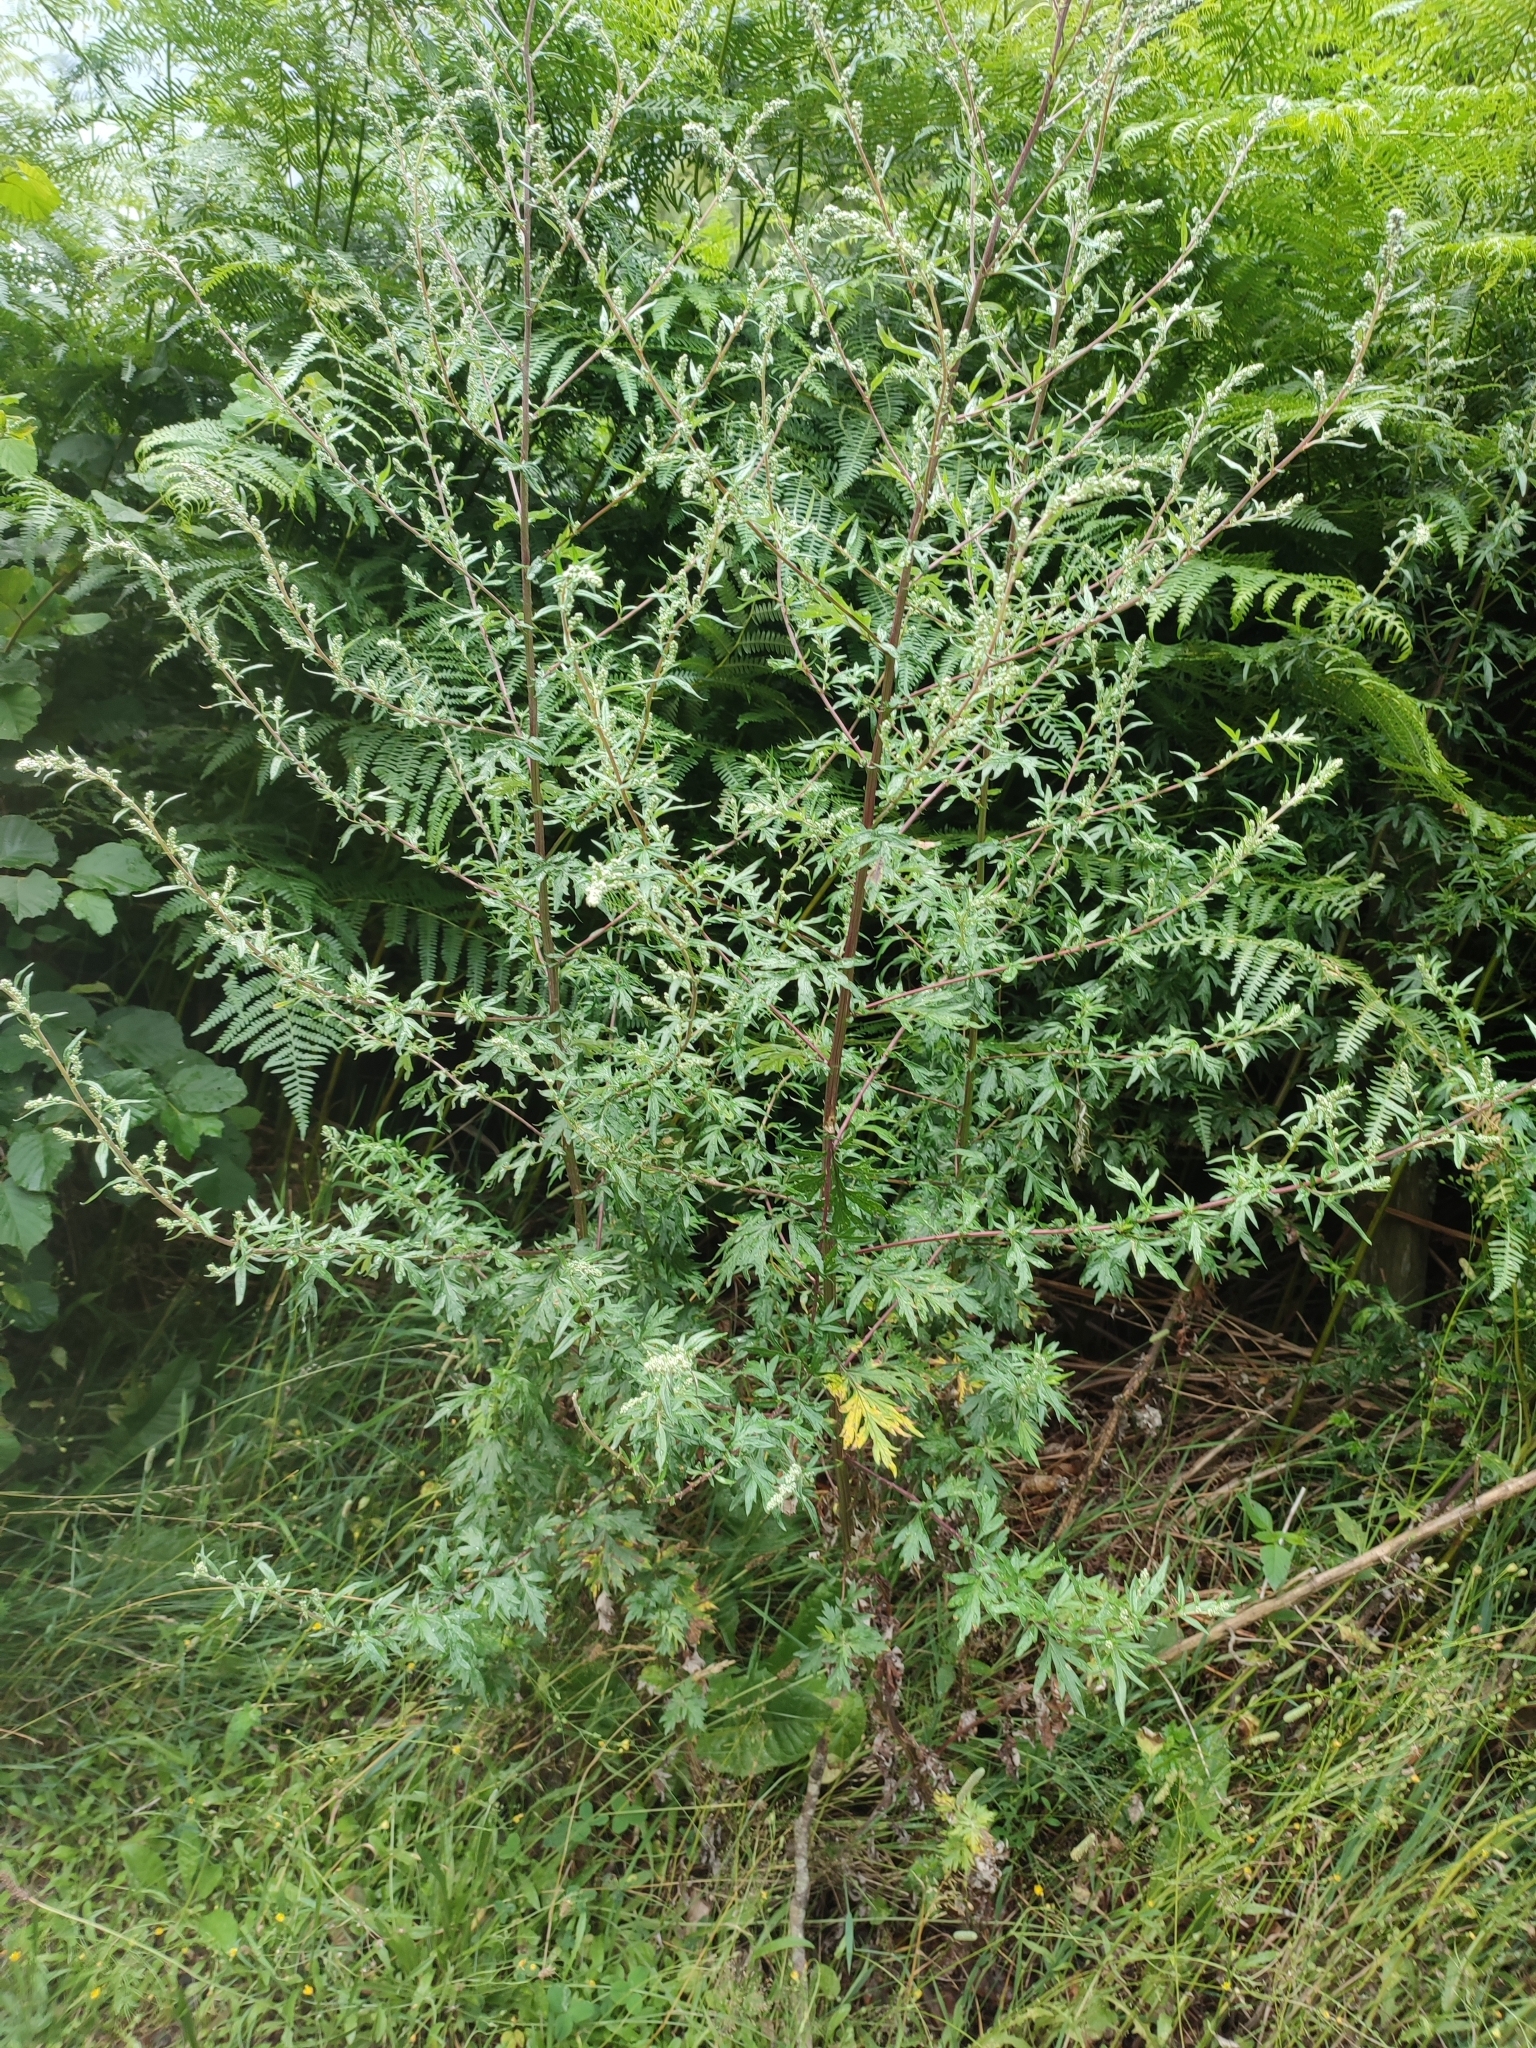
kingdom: Plantae
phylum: Tracheophyta
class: Magnoliopsida
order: Asterales
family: Asteraceae
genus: Artemisia
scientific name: Artemisia vulgaris
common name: Mugwort
